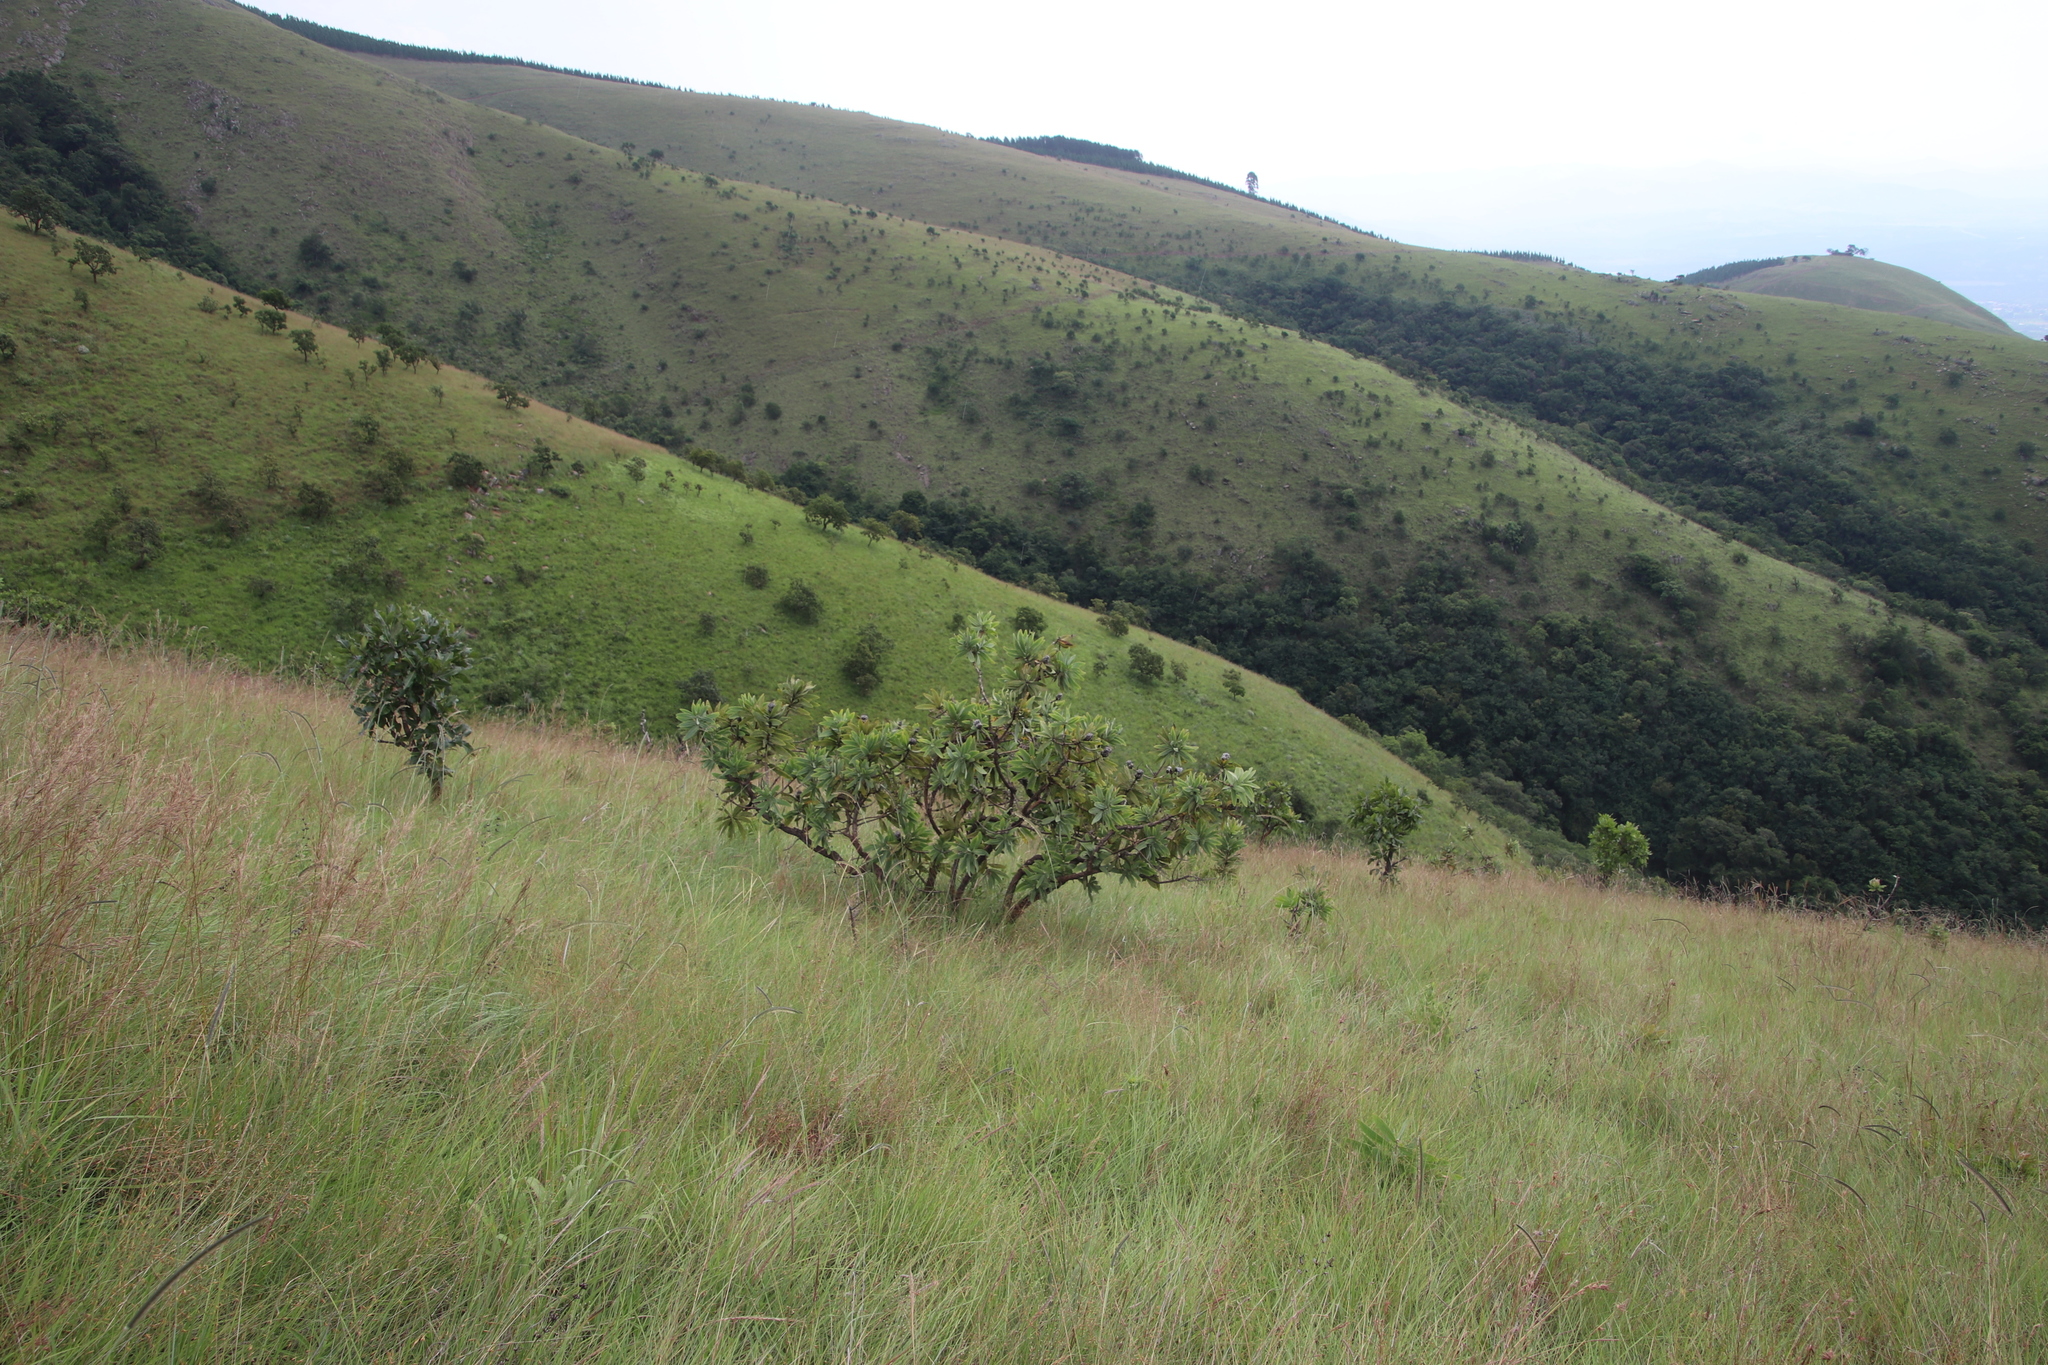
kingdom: Plantae
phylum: Tracheophyta
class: Magnoliopsida
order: Proteales
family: Proteaceae
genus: Protea
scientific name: Protea gaguedi
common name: African protea
